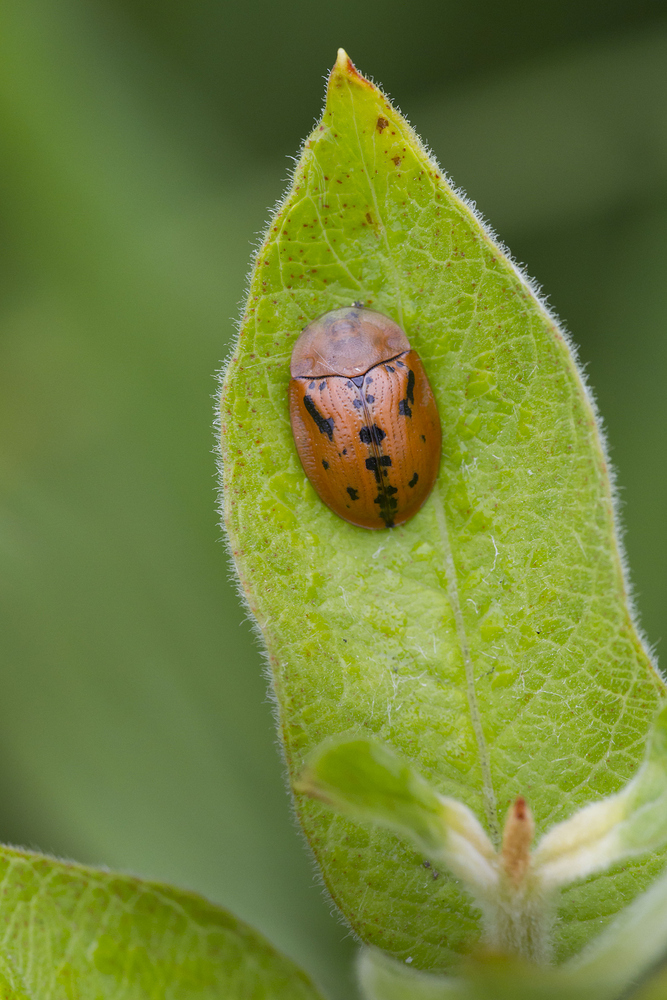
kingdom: Animalia
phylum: Arthropoda
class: Insecta
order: Coleoptera
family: Chrysomelidae
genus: Cassida
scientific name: Cassida murraea
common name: Fleabane tortoise beetle
